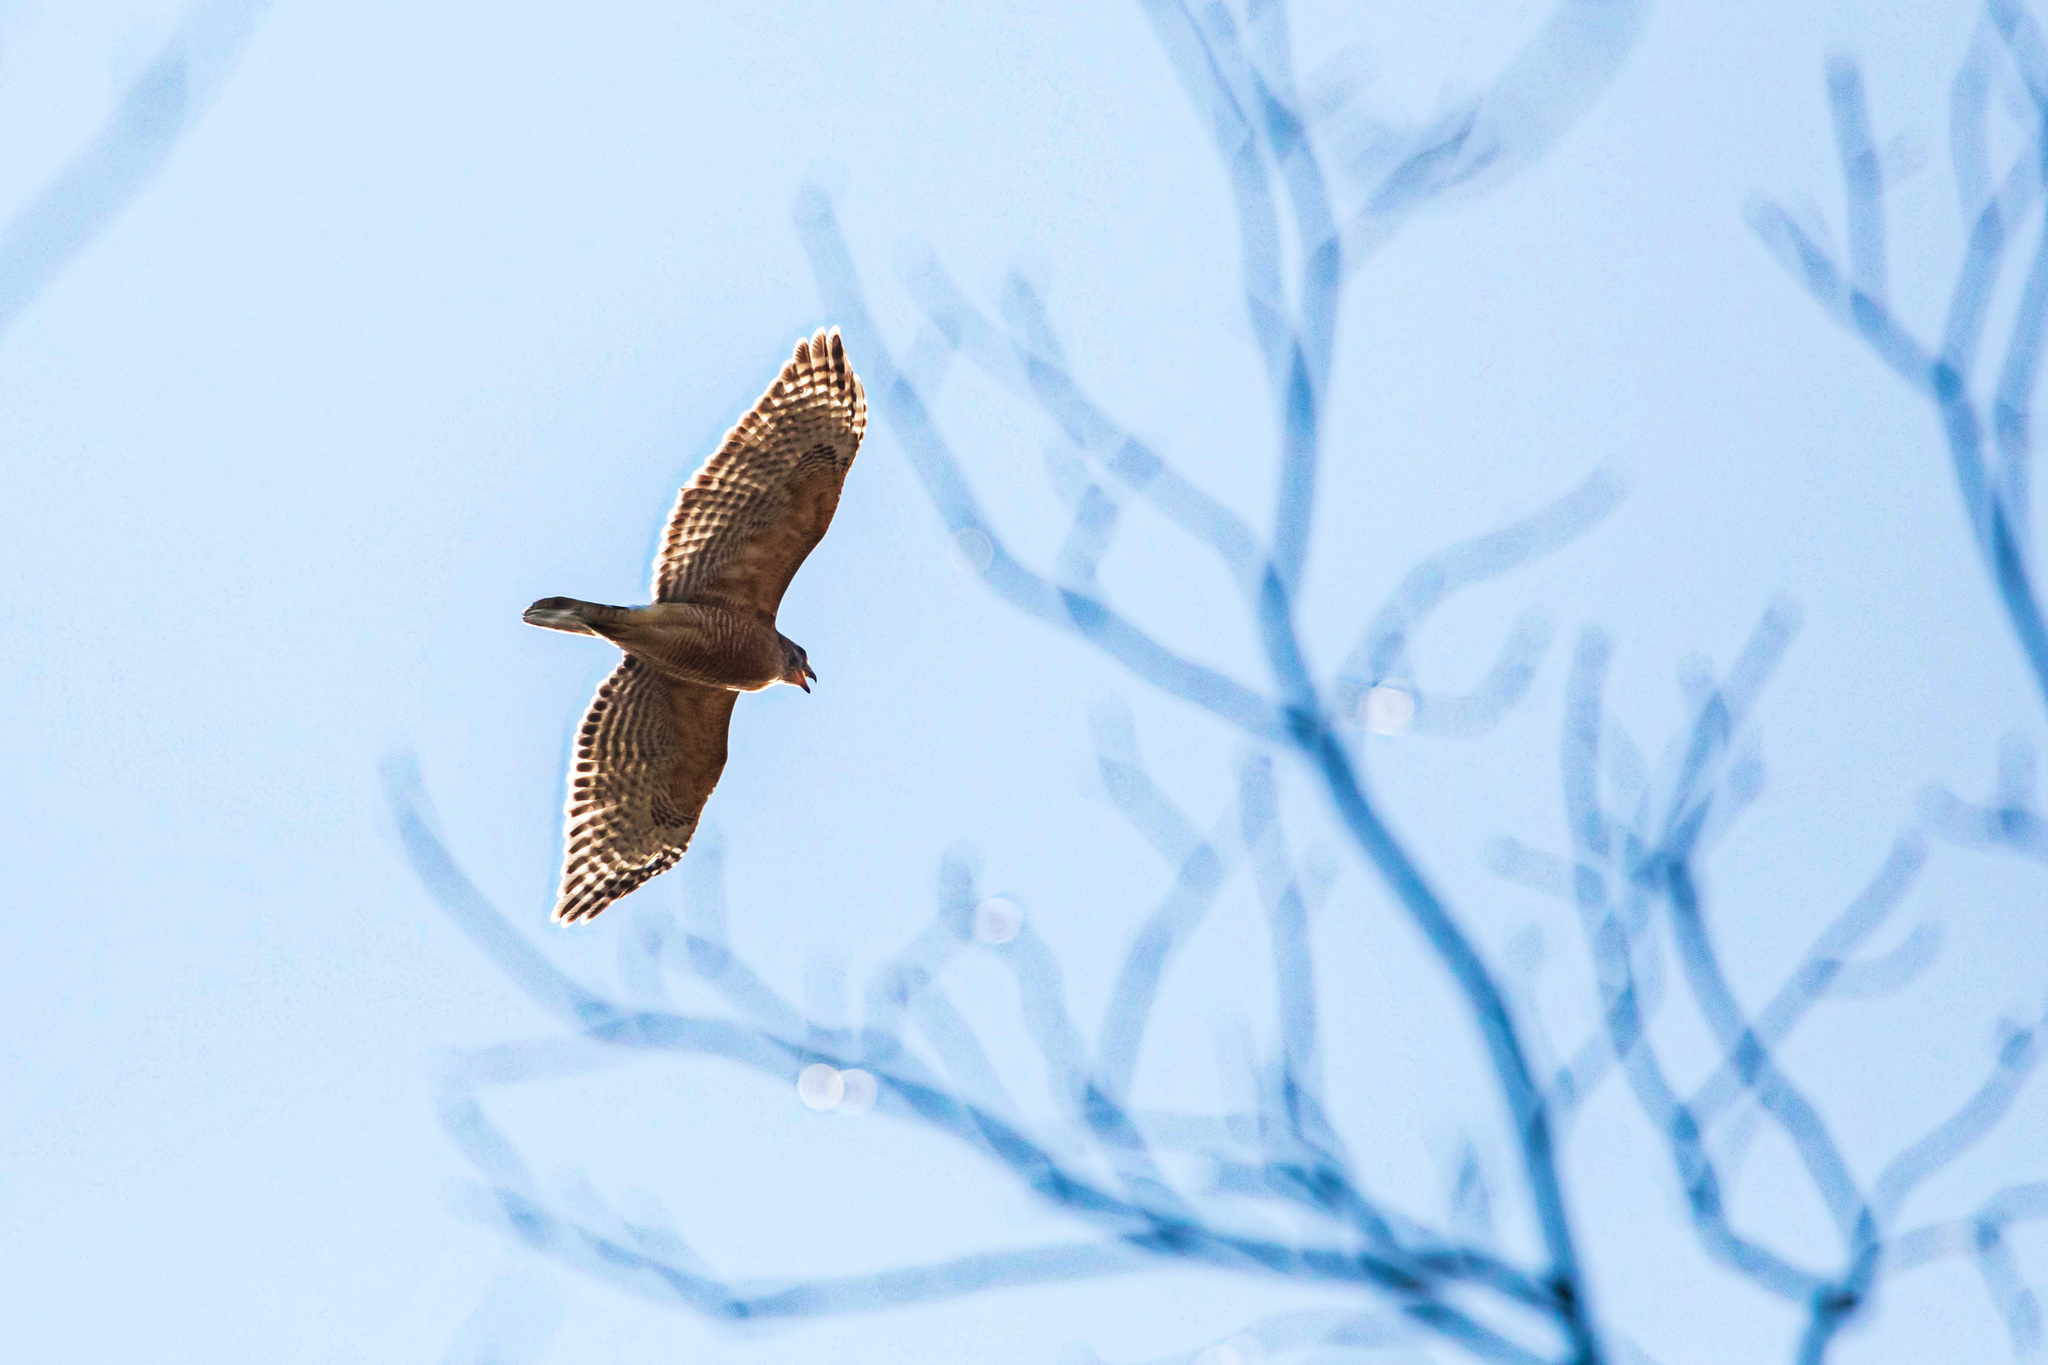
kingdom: Animalia
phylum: Chordata
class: Aves
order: Accipitriformes
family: Accipitridae
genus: Buteo
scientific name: Buteo lineatus
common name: Red-shouldered hawk
